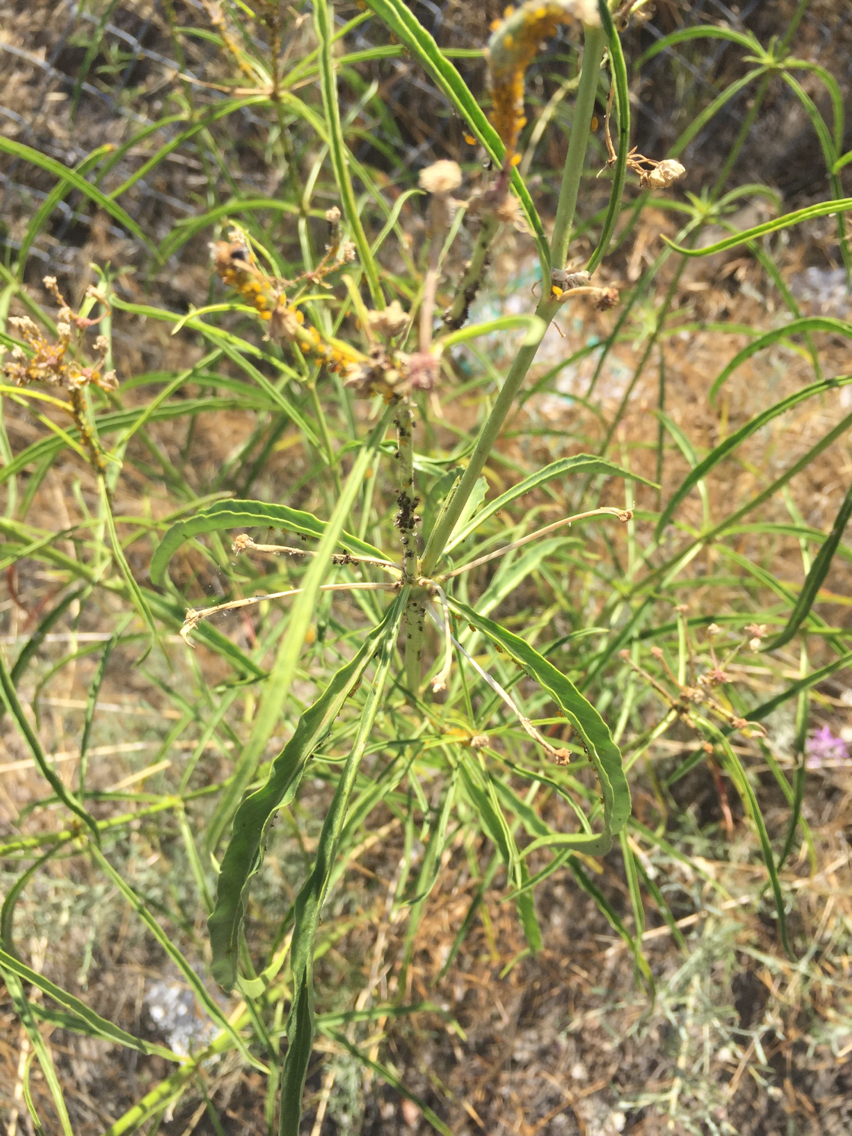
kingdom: Plantae
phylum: Tracheophyta
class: Magnoliopsida
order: Gentianales
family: Apocynaceae
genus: Asclepias
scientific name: Asclepias fascicularis
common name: Mexican milkweed
